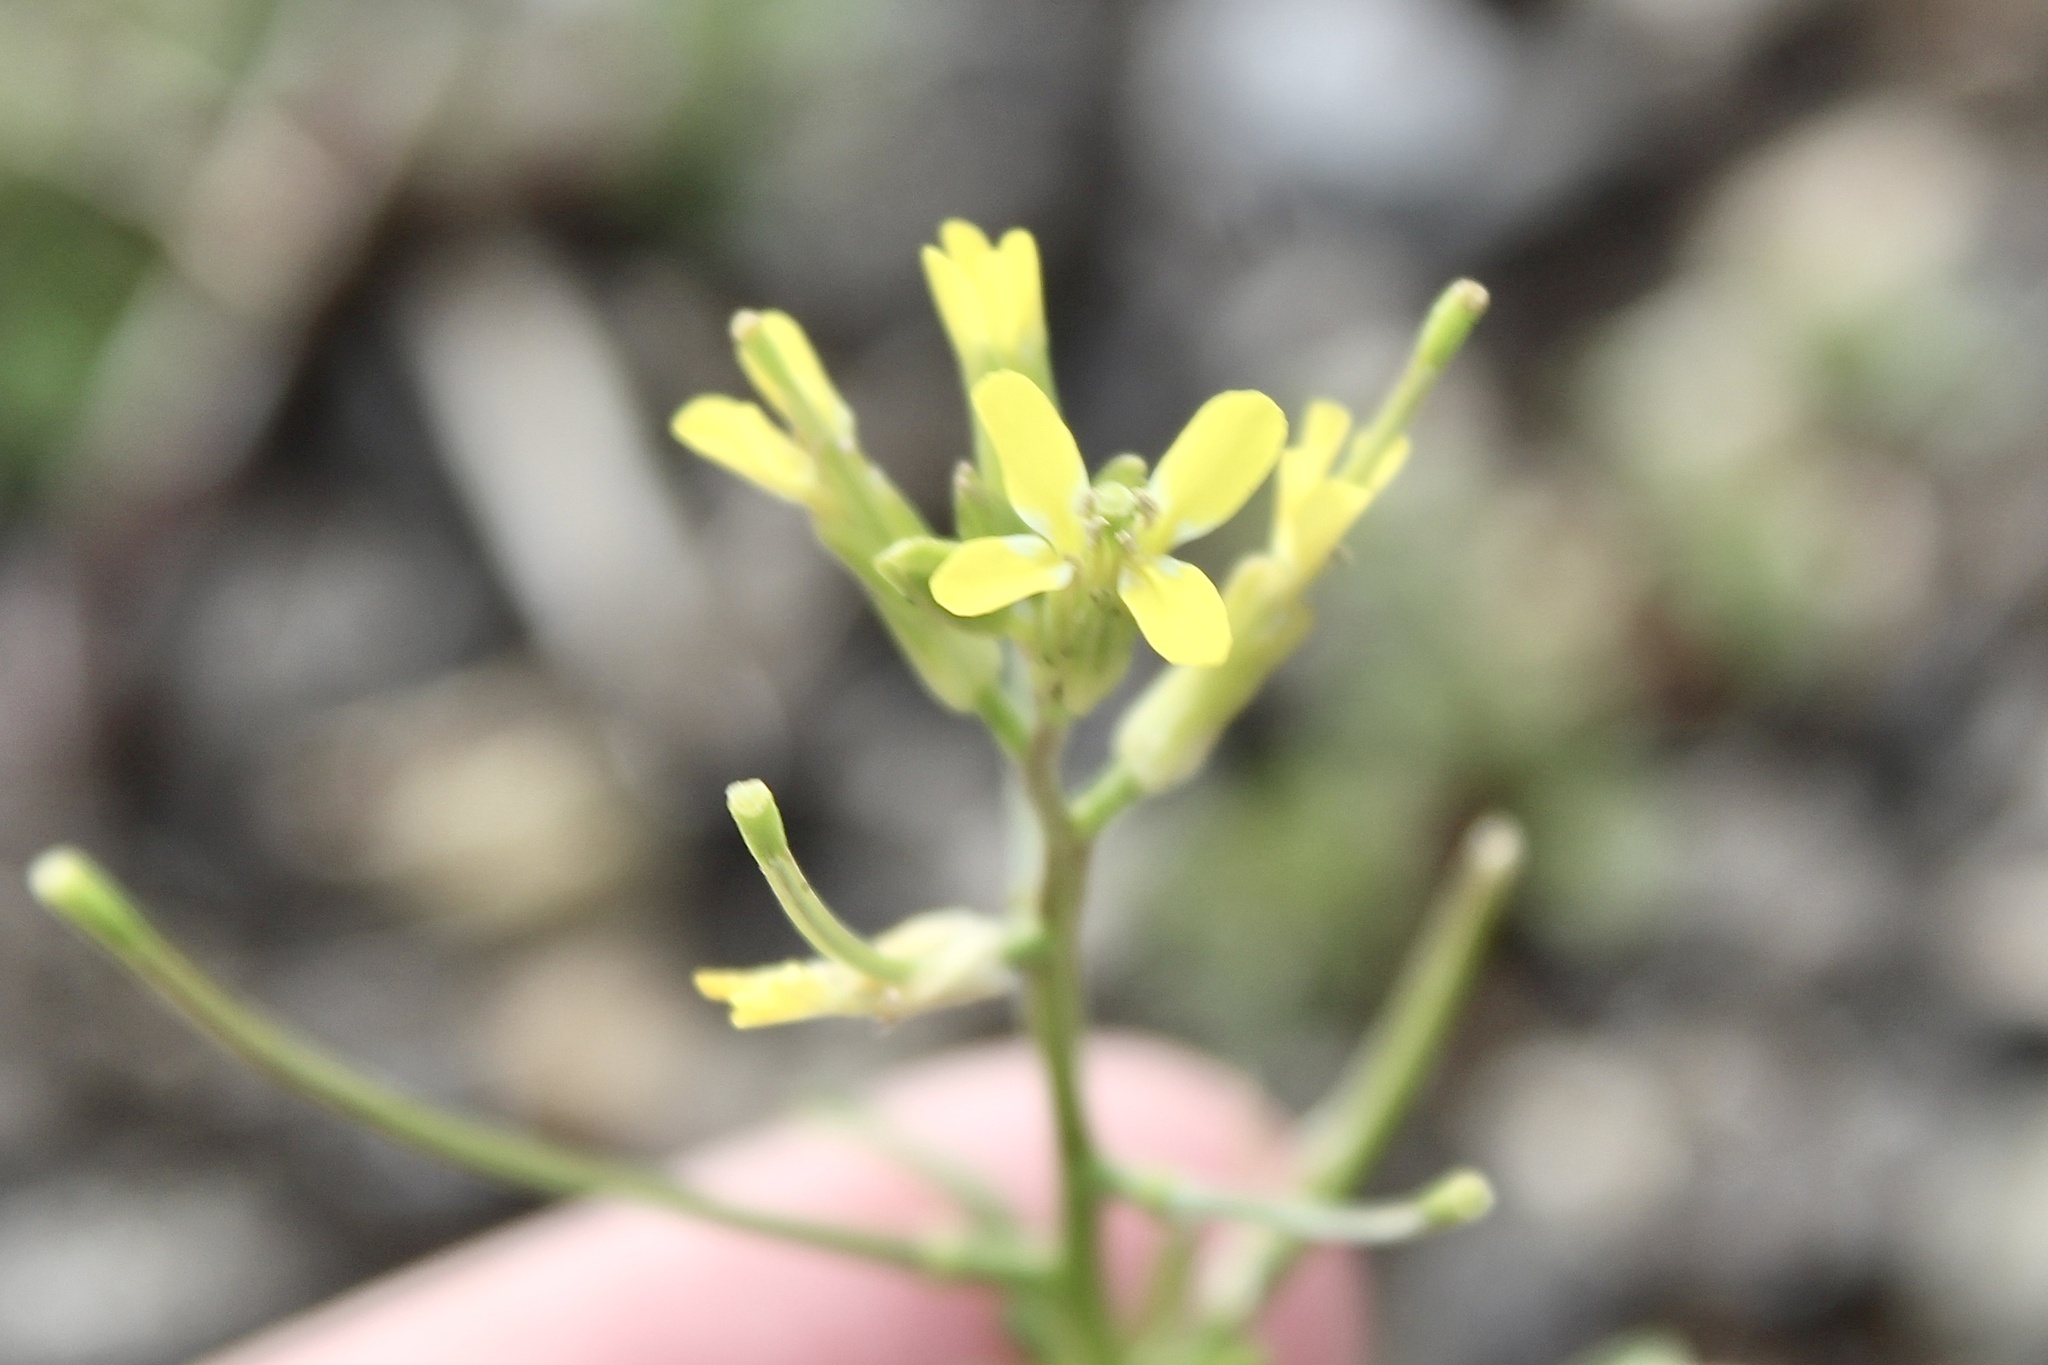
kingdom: Plantae
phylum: Tracheophyta
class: Magnoliopsida
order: Brassicales
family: Brassicaceae
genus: Erysimum
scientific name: Erysimum repandum
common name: Spreading wallflower
